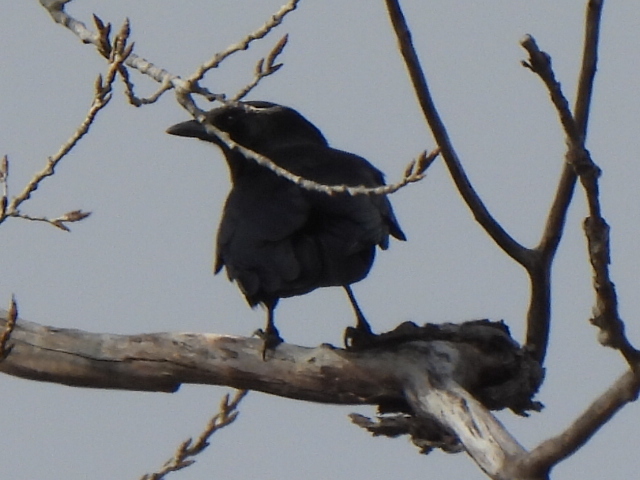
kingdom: Animalia
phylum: Chordata
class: Aves
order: Passeriformes
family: Corvidae
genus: Corvus
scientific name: Corvus brachyrhynchos
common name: American crow
